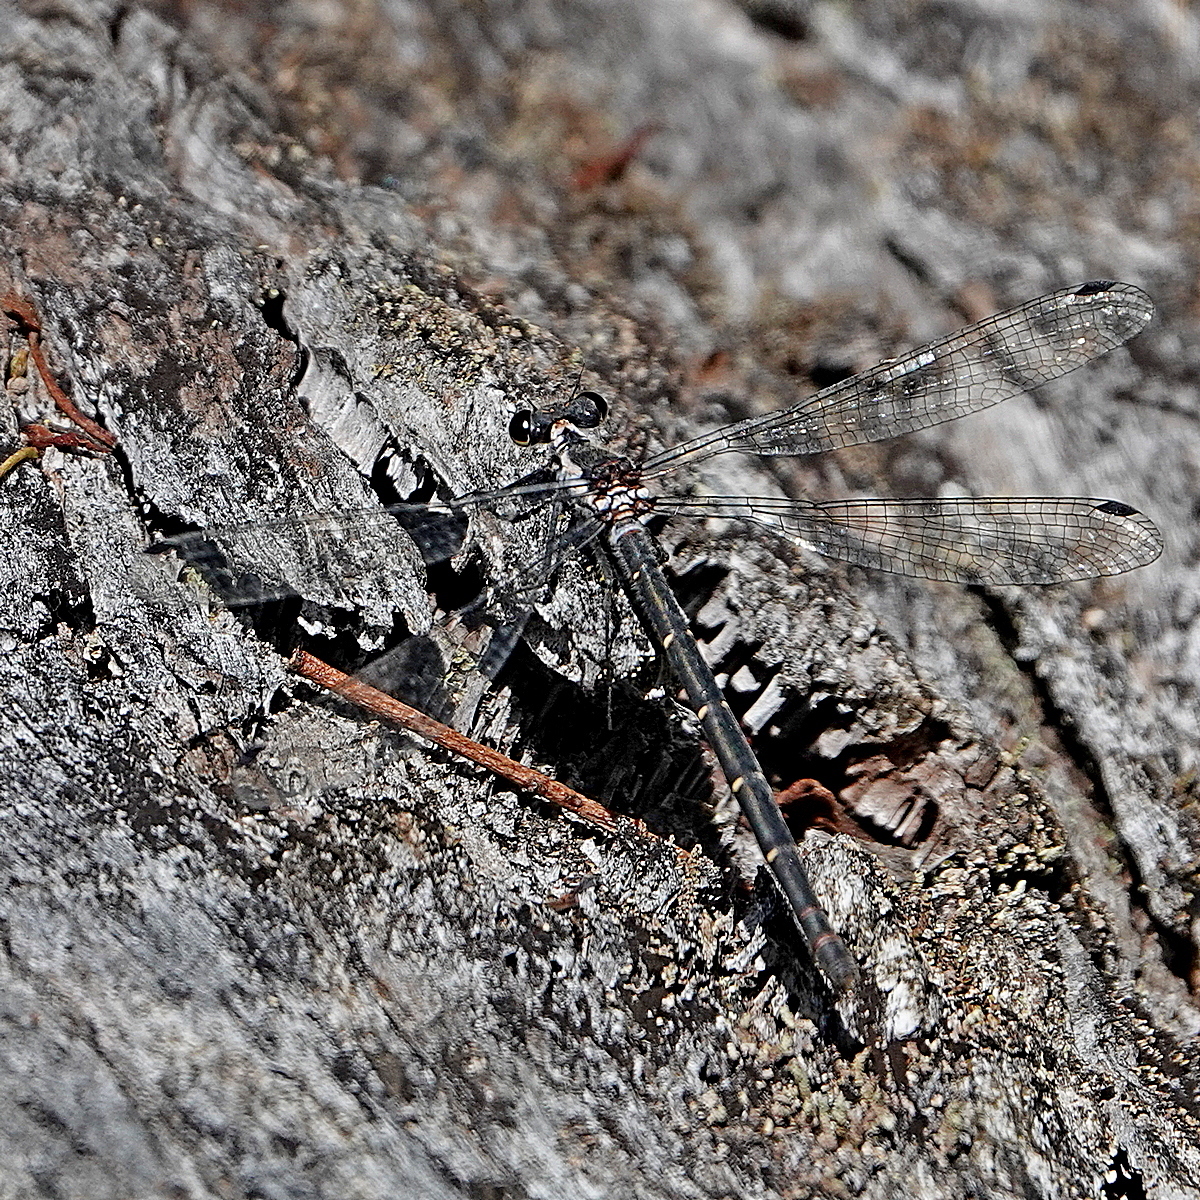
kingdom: Animalia
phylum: Arthropoda
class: Insecta
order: Odonata
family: Argiolestidae
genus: Austroargiolestes
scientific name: Austroargiolestes calcaris
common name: Powdered flatwing
